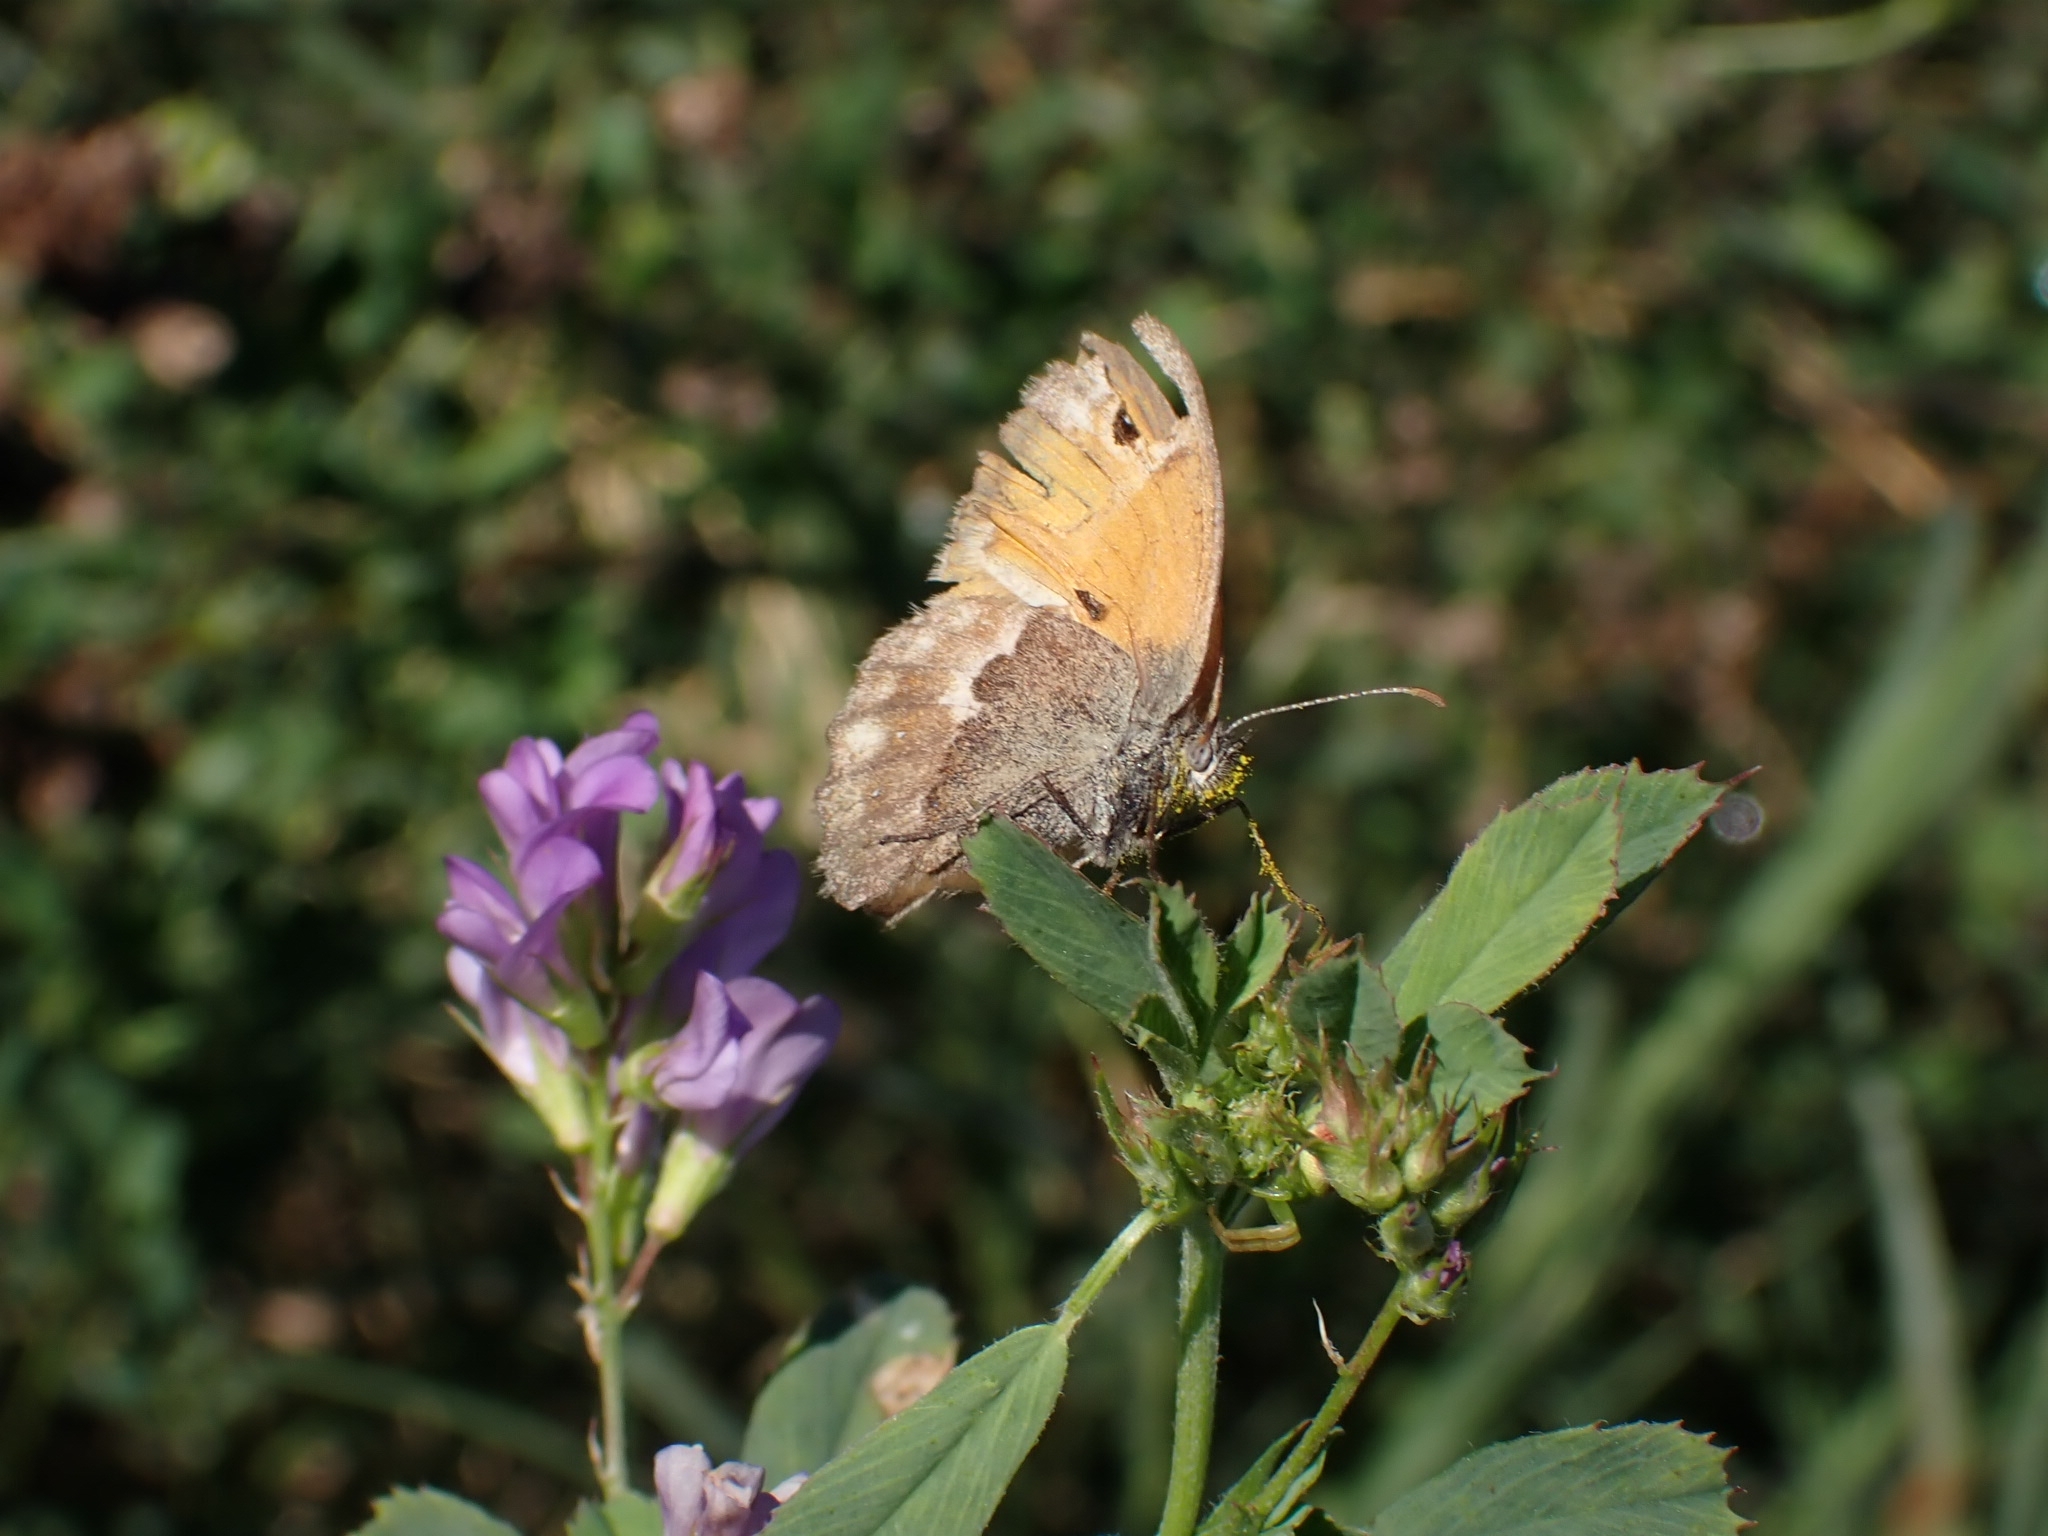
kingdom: Animalia
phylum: Arthropoda
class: Insecta
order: Lepidoptera
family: Nymphalidae
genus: Coenonympha
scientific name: Coenonympha pamphilus
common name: Small heath
